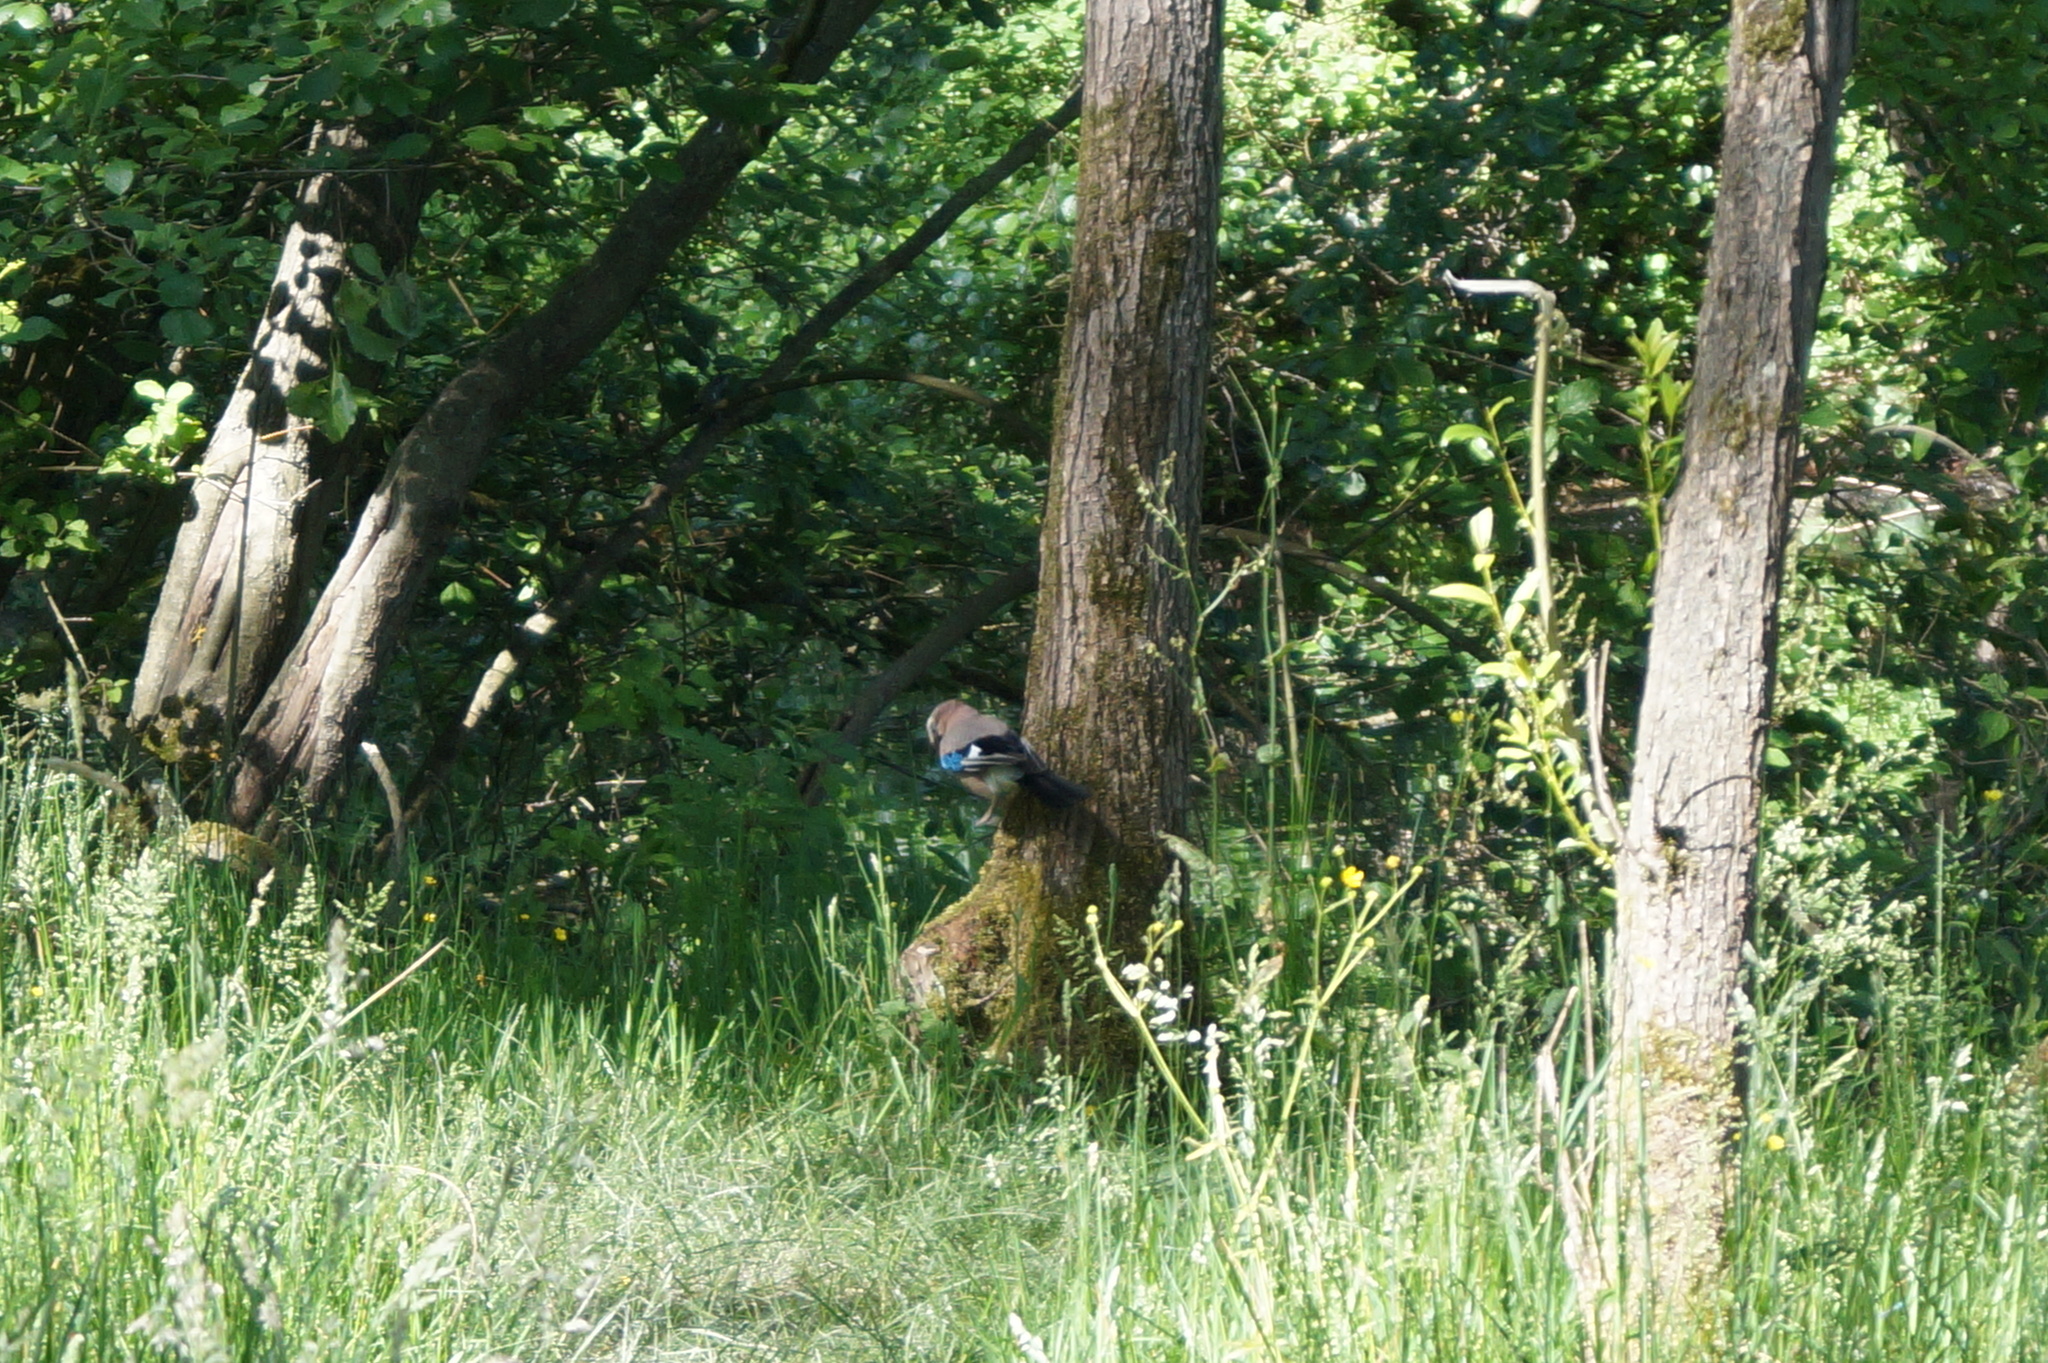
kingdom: Animalia
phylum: Chordata
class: Aves
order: Passeriformes
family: Corvidae
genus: Garrulus
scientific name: Garrulus glandarius
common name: Eurasian jay
